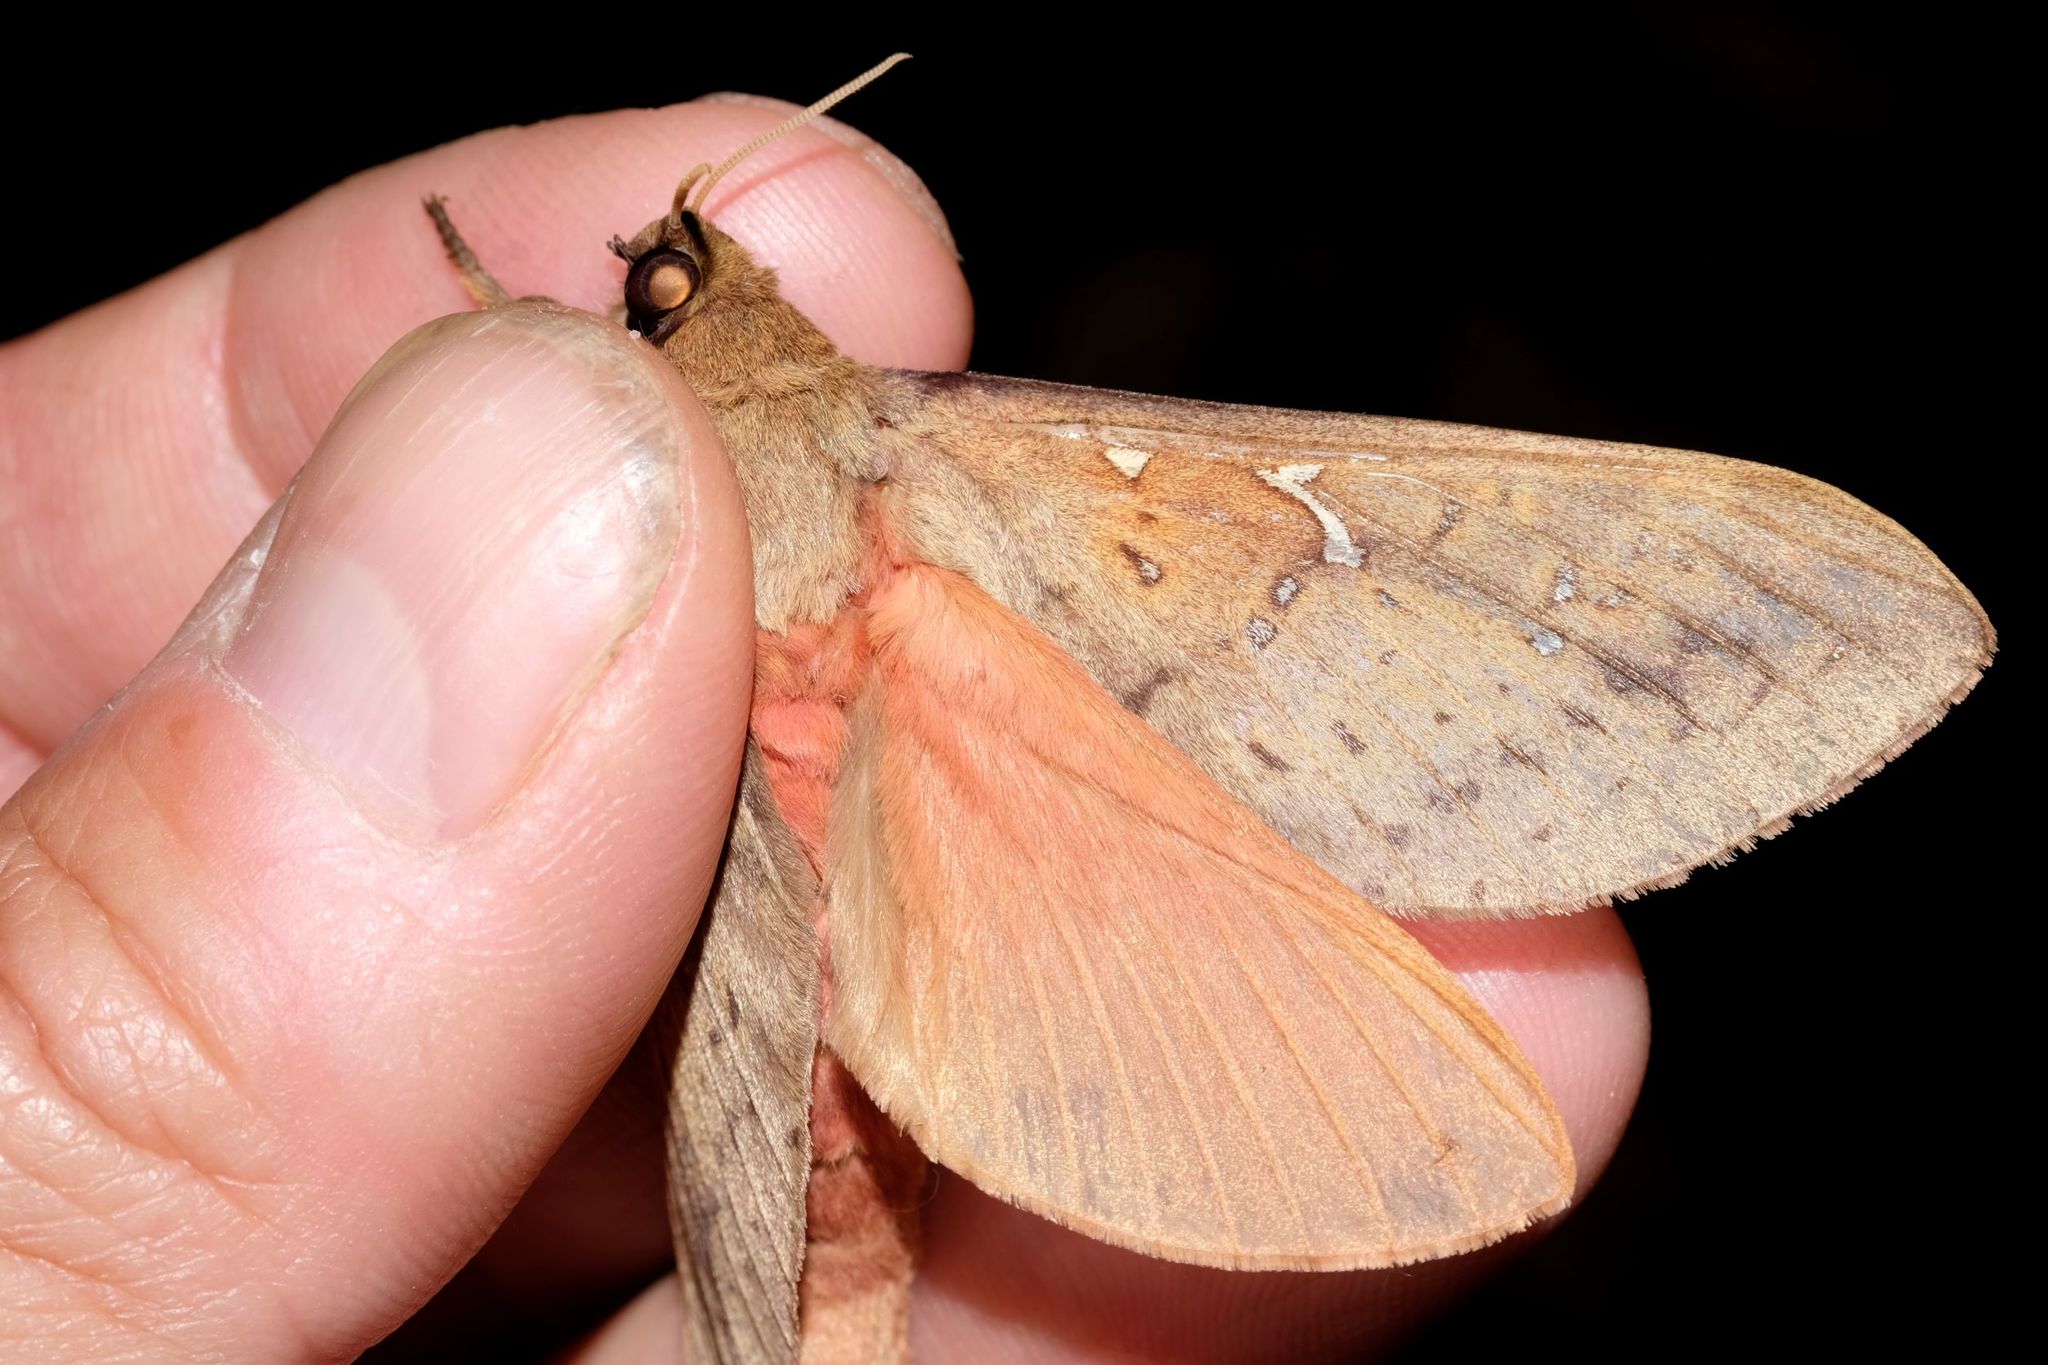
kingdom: Animalia
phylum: Arthropoda
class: Insecta
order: Lepidoptera
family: Hepialidae
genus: Oxycanus
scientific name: Oxycanus sirpus
